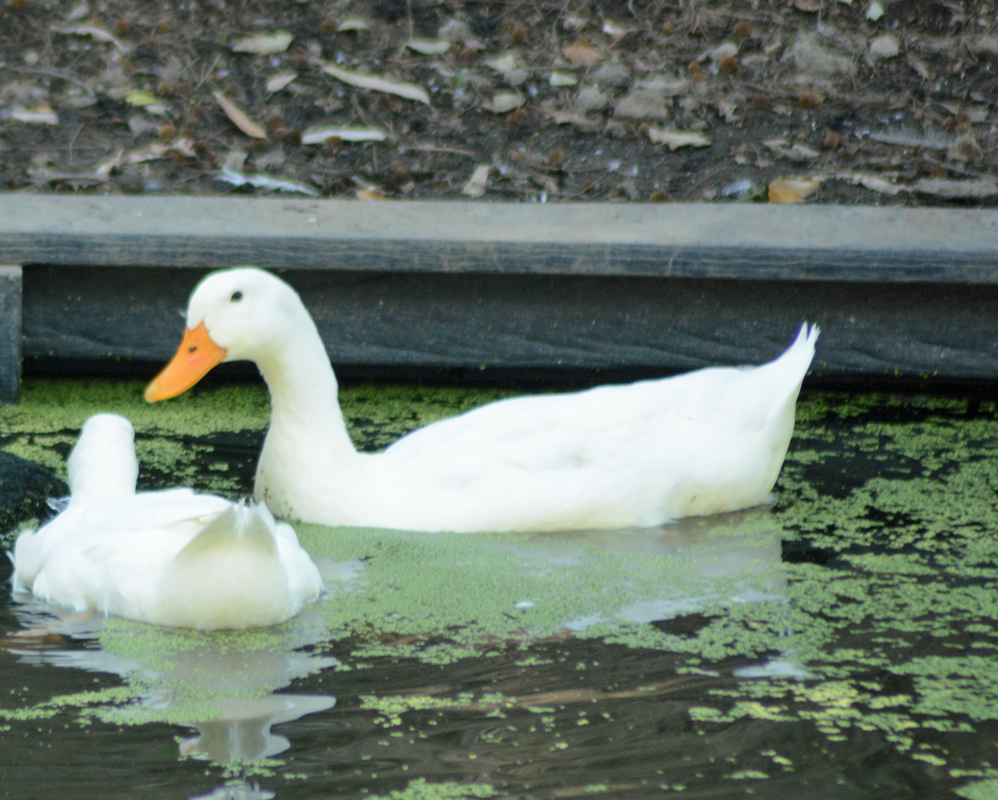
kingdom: Animalia
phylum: Chordata
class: Aves
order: Anseriformes
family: Anatidae
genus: Anas
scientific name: Anas platyrhynchos
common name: Mallard
